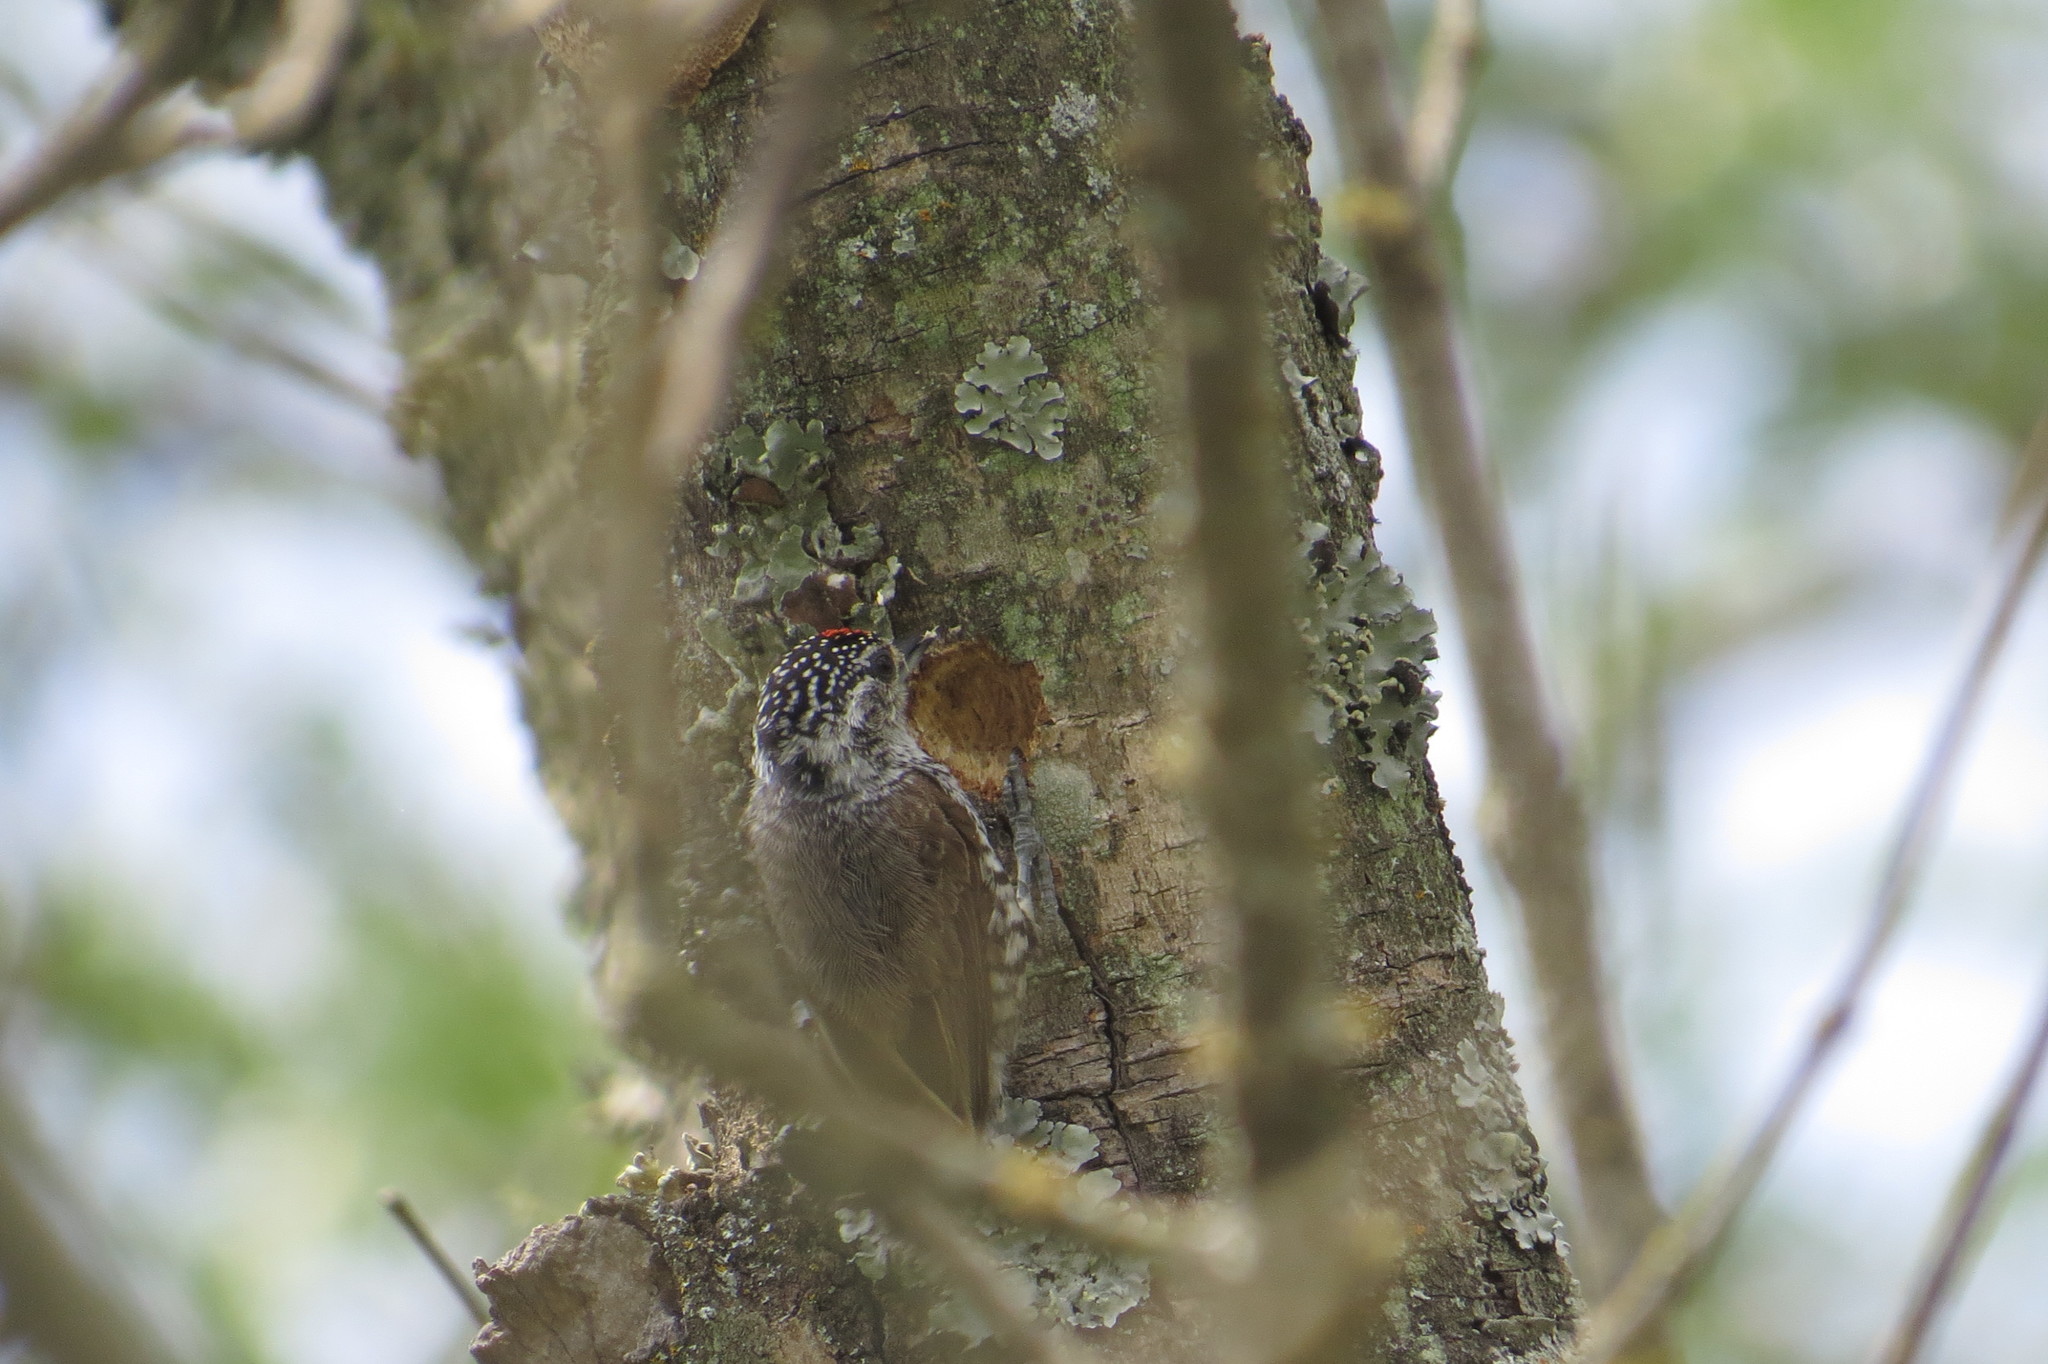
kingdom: Animalia
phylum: Chordata
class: Aves
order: Piciformes
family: Picidae
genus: Picumnus
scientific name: Picumnus cirratus
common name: White-barred piculet
